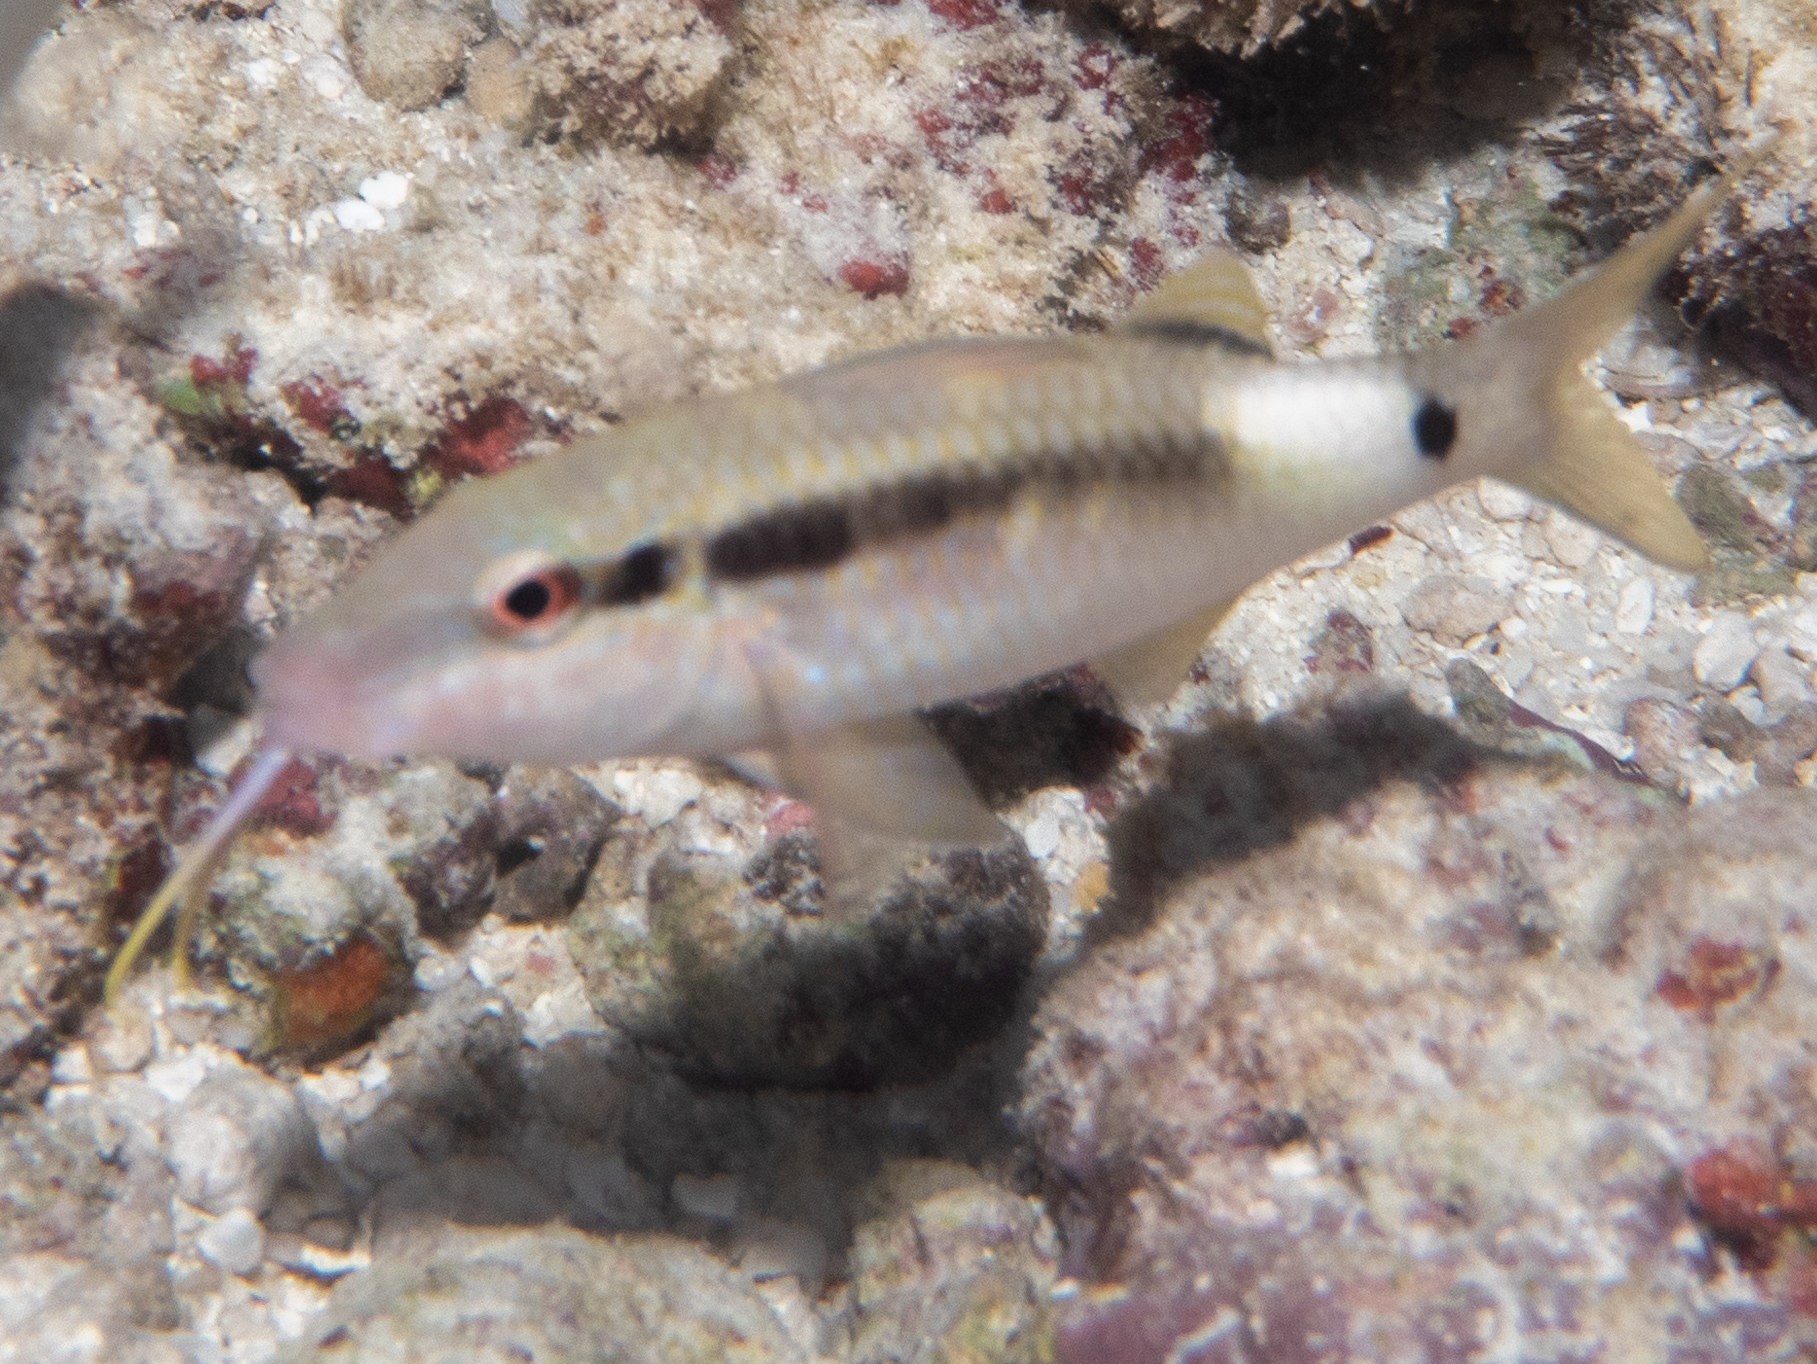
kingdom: Animalia
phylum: Chordata
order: Perciformes
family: Mullidae
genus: Parupeneus
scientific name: Parupeneus macronemus
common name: Long-barbel goatfish
